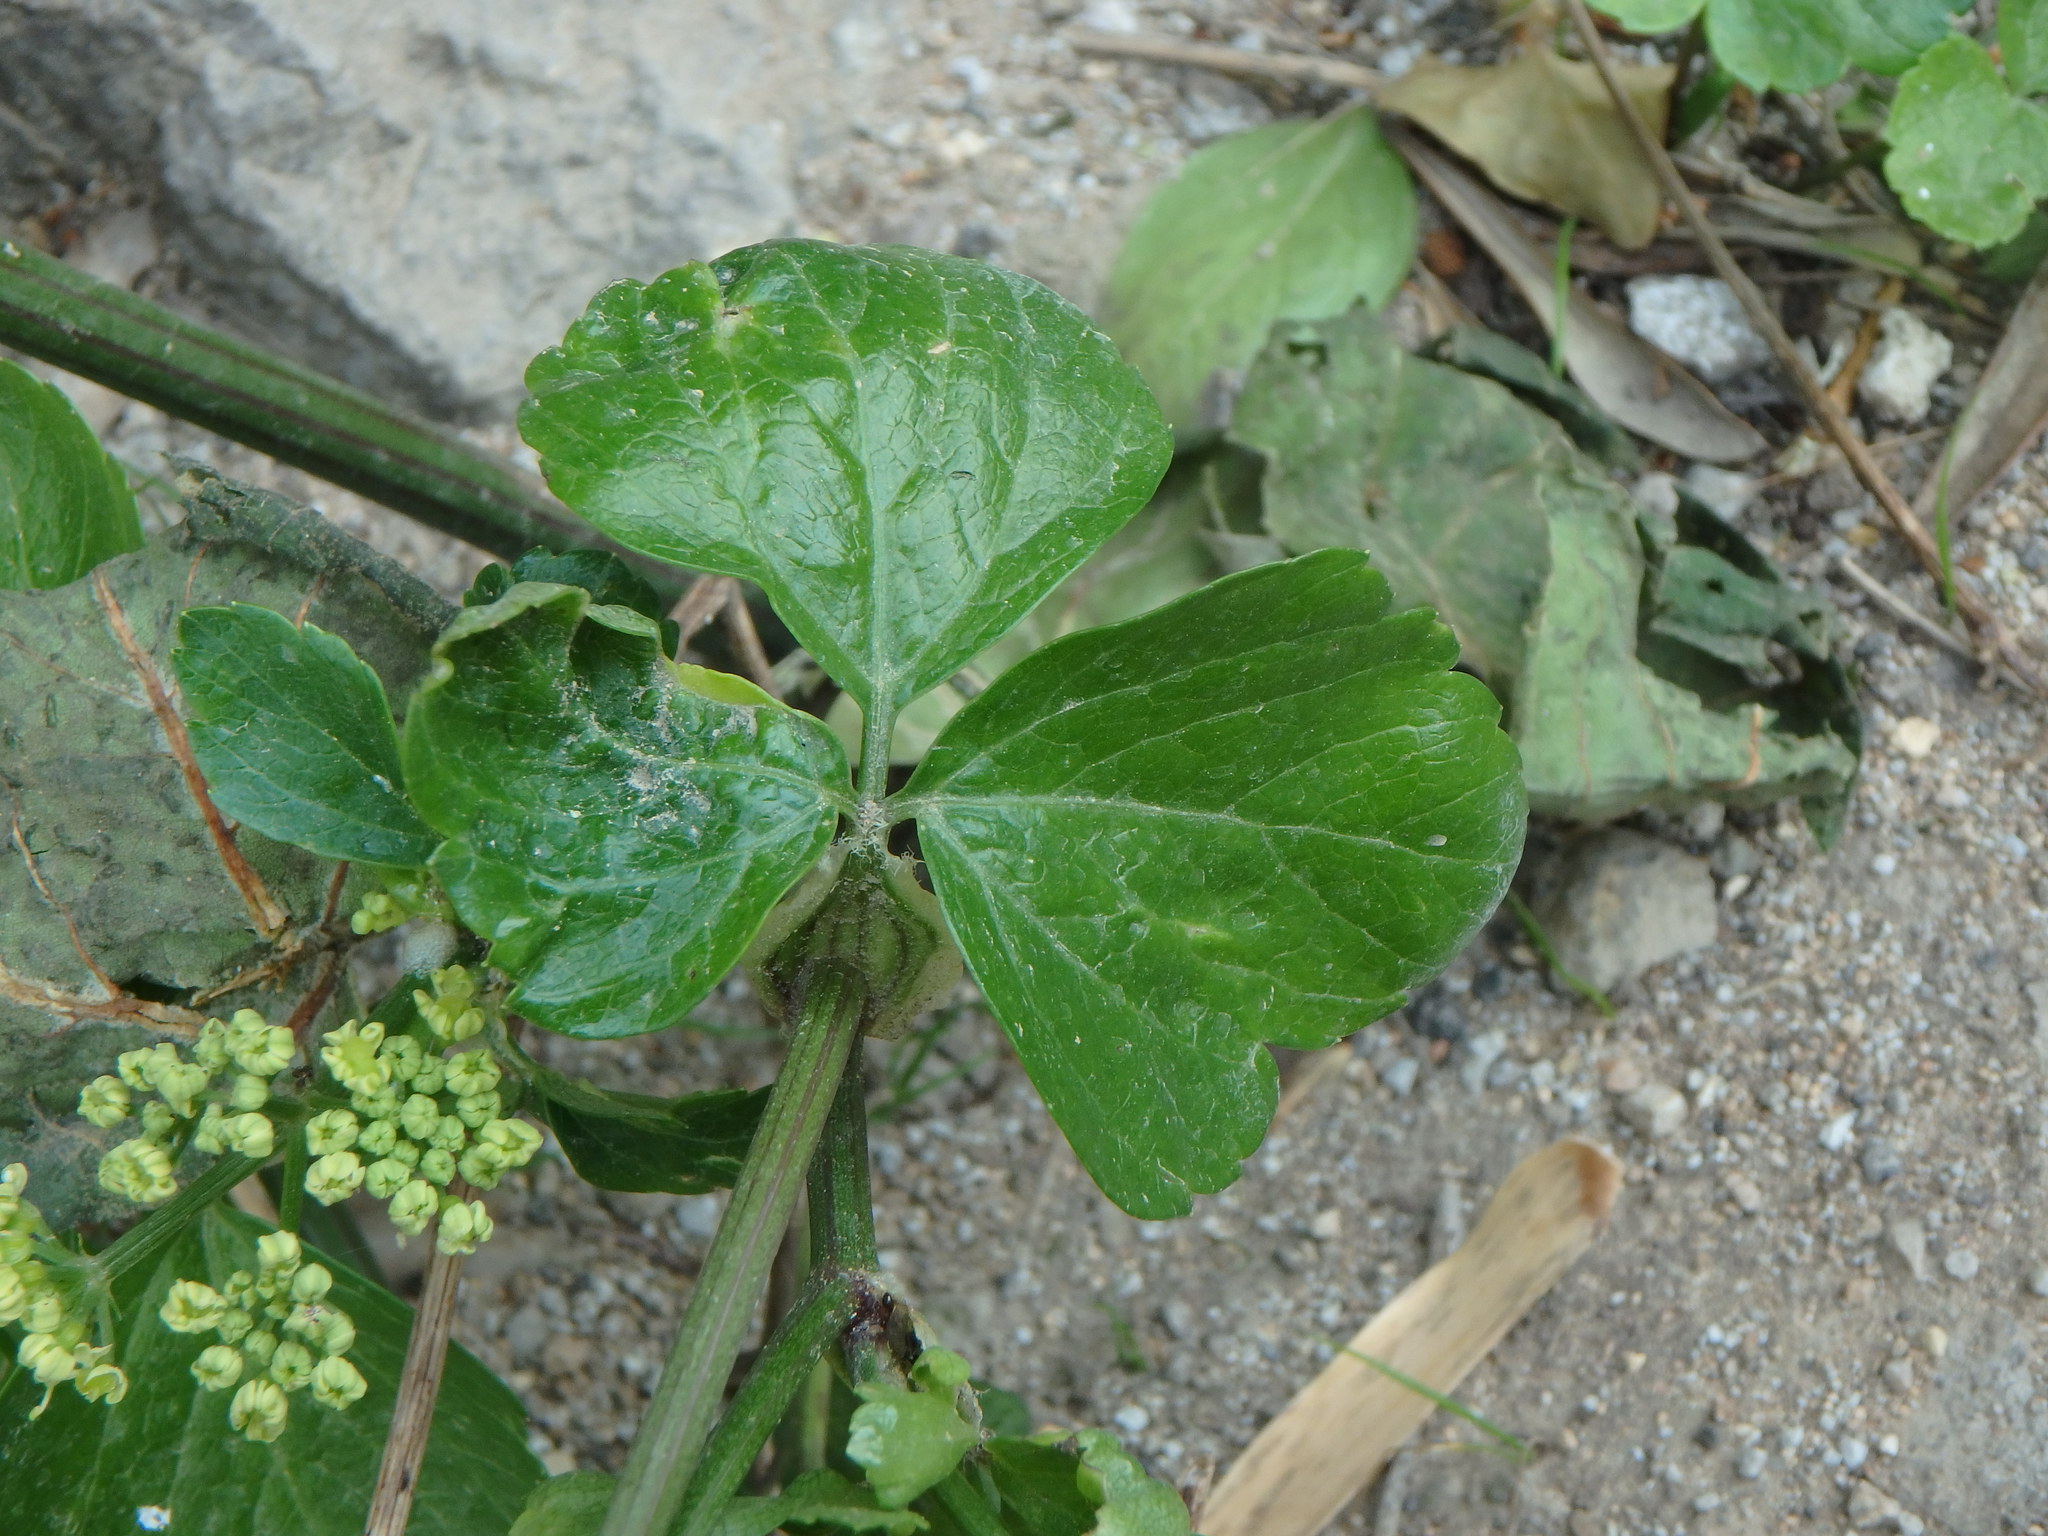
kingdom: Plantae
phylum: Tracheophyta
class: Magnoliopsida
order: Apiales
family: Apiaceae
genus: Smyrnium
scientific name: Smyrnium olusatrum
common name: Alexanders
